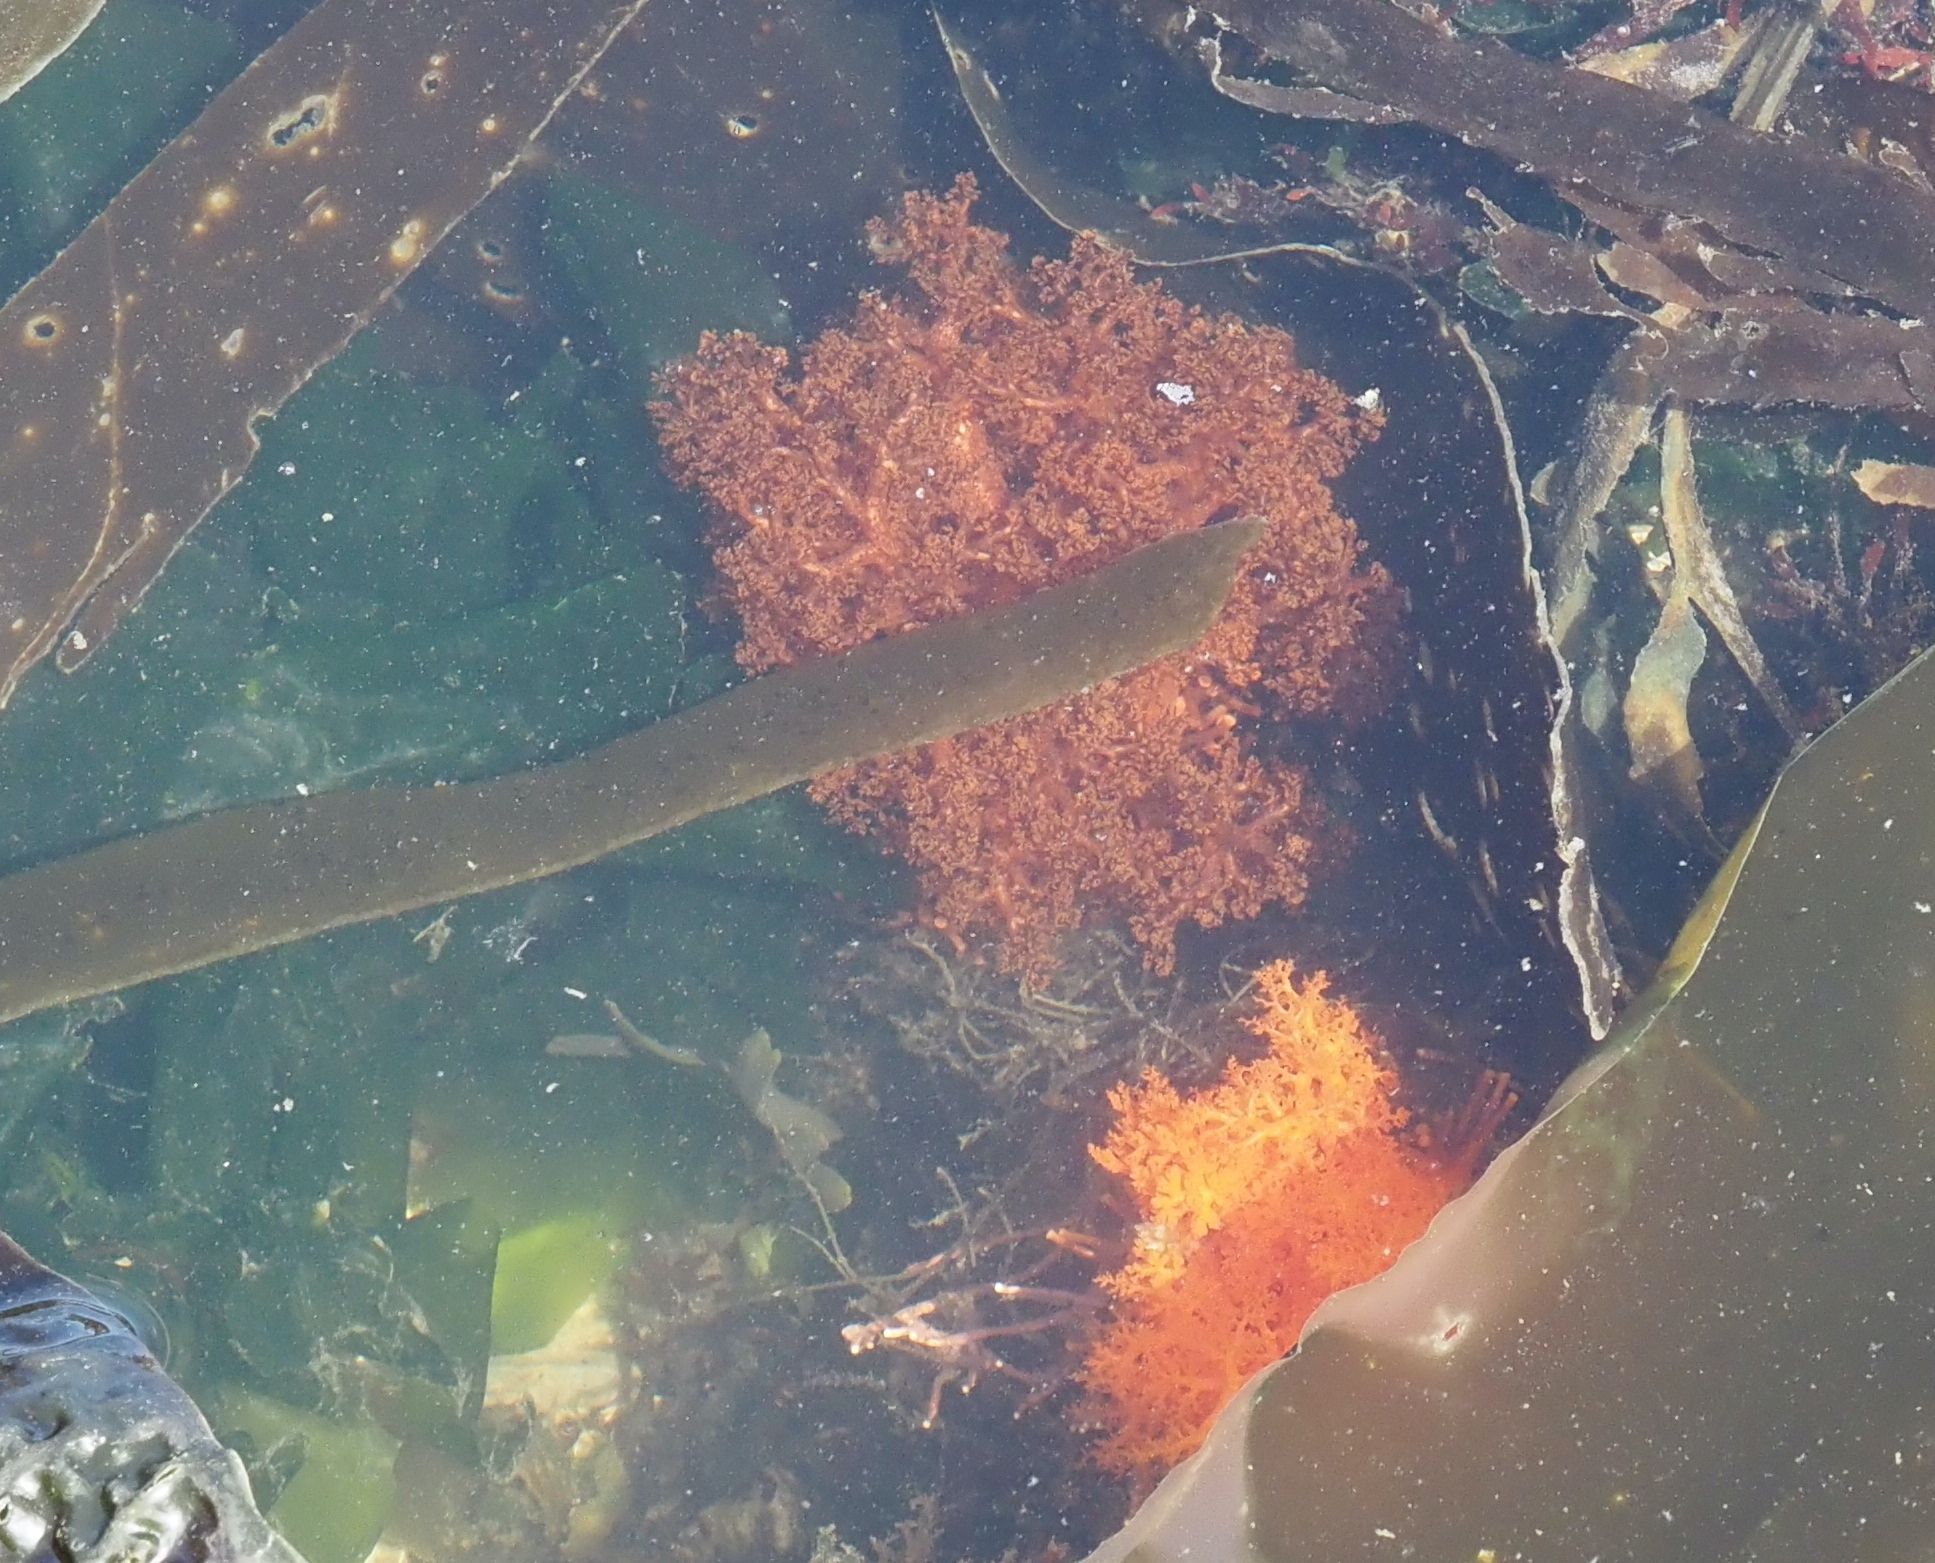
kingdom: Animalia
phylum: Echinodermata
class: Holothuroidea
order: Dendrochirotida
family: Cucumariidae
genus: Cucumaria
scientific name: Cucumaria miniata
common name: Orange sea cucumber
